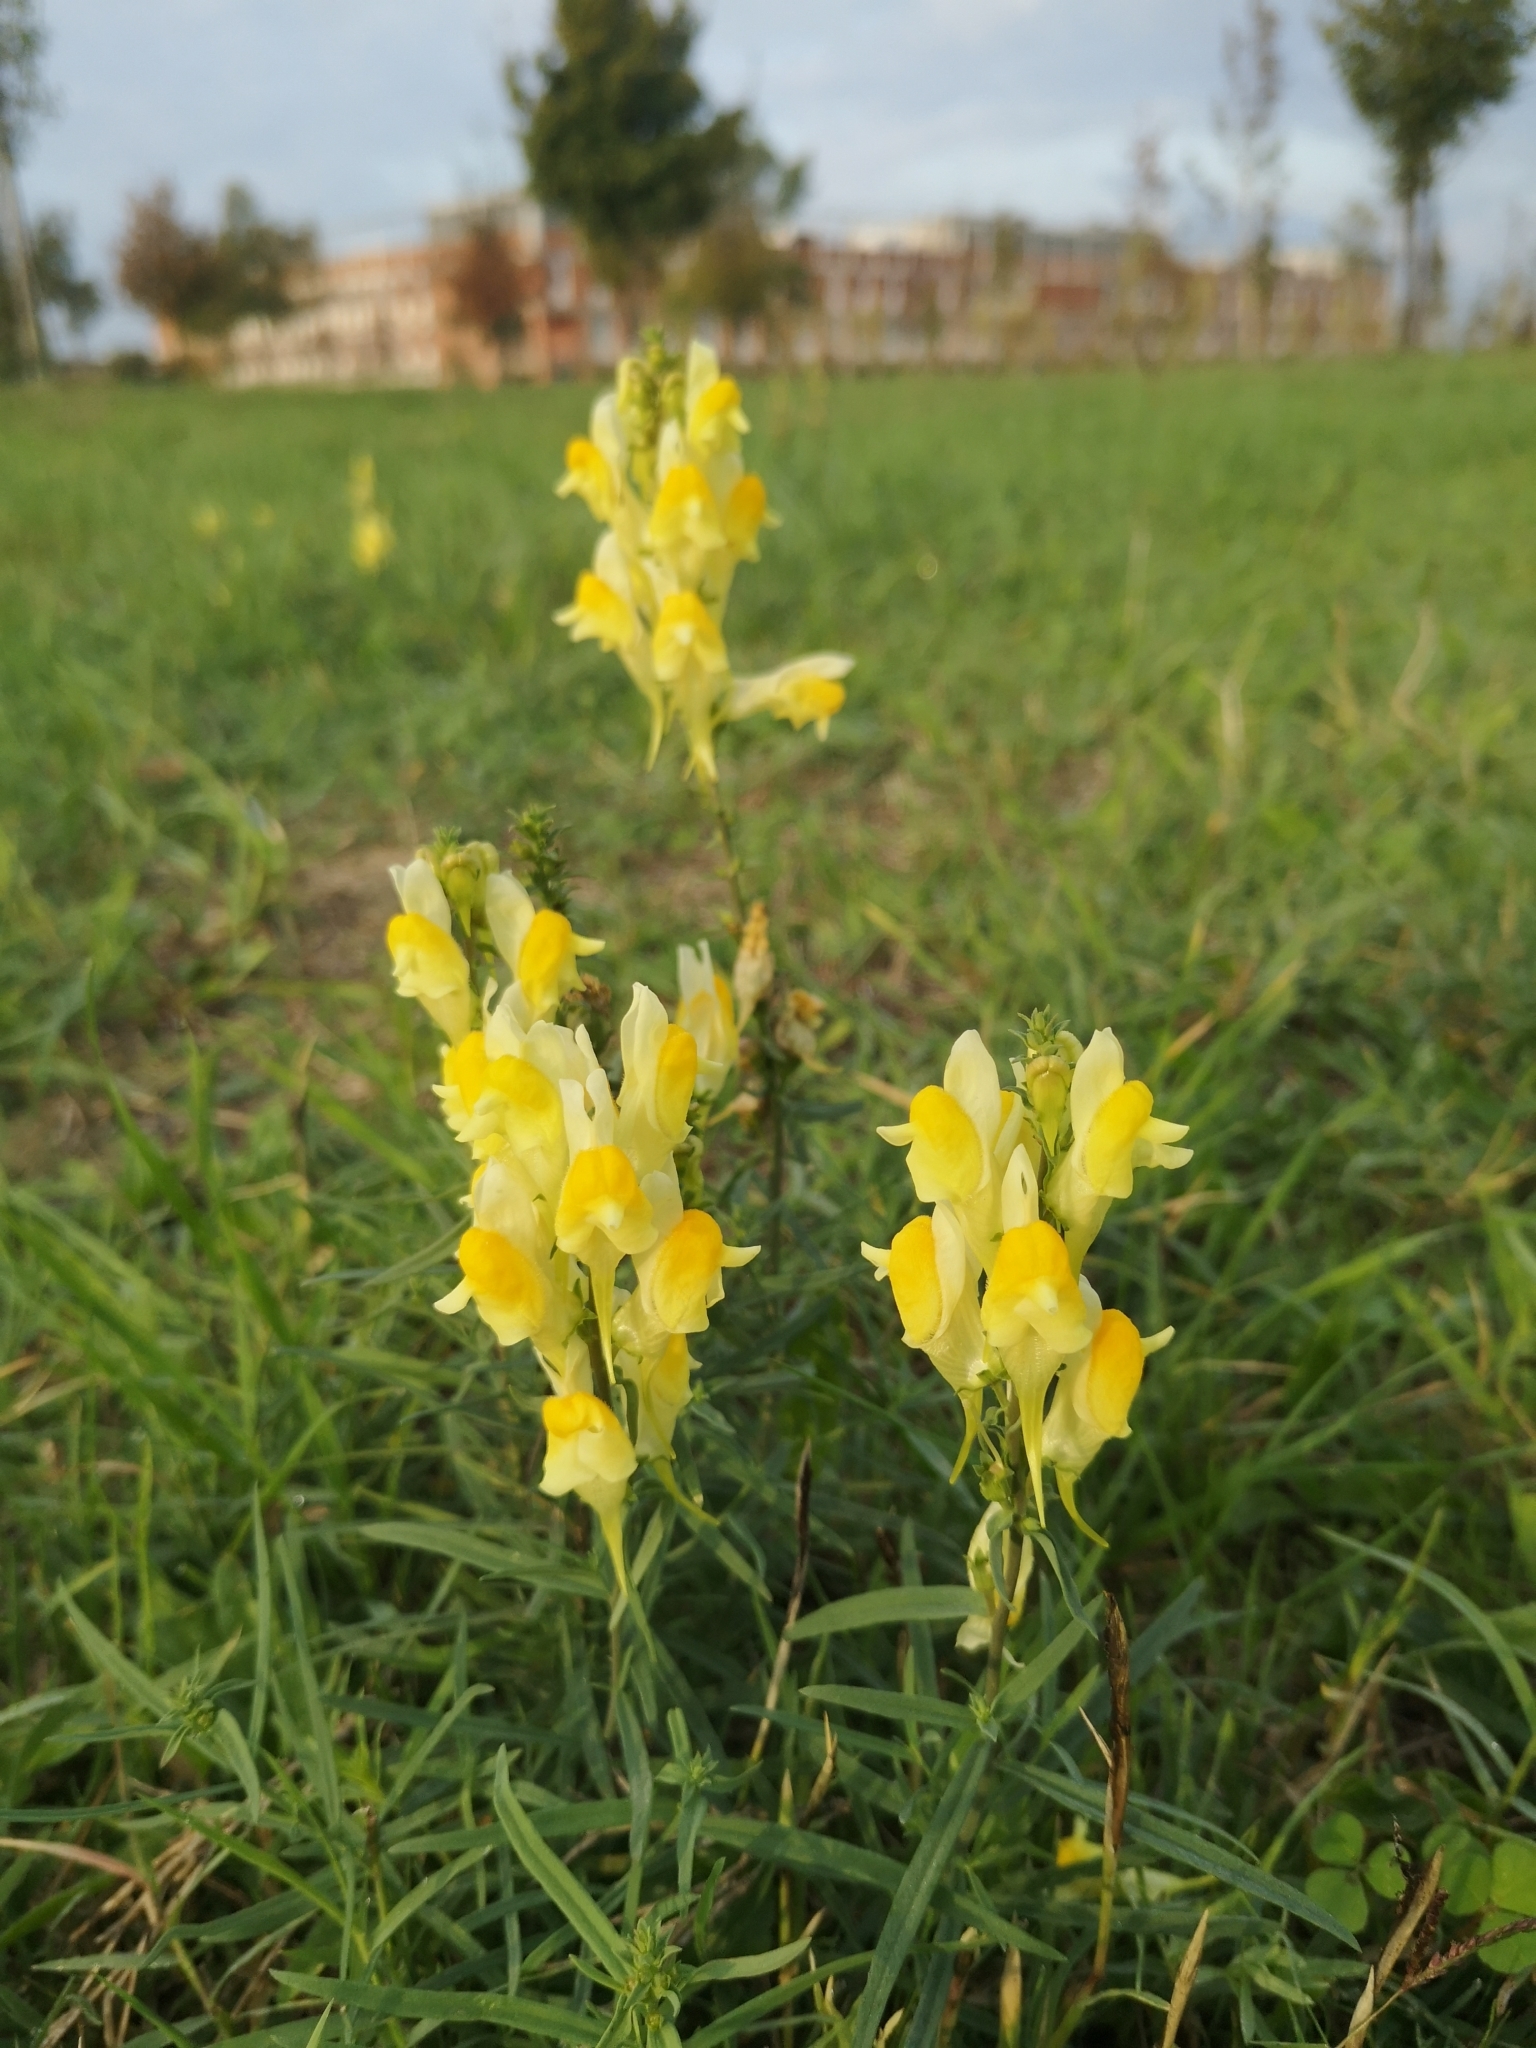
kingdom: Plantae
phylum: Tracheophyta
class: Magnoliopsida
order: Lamiales
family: Plantaginaceae
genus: Linaria
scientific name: Linaria vulgaris
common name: Butter and eggs
